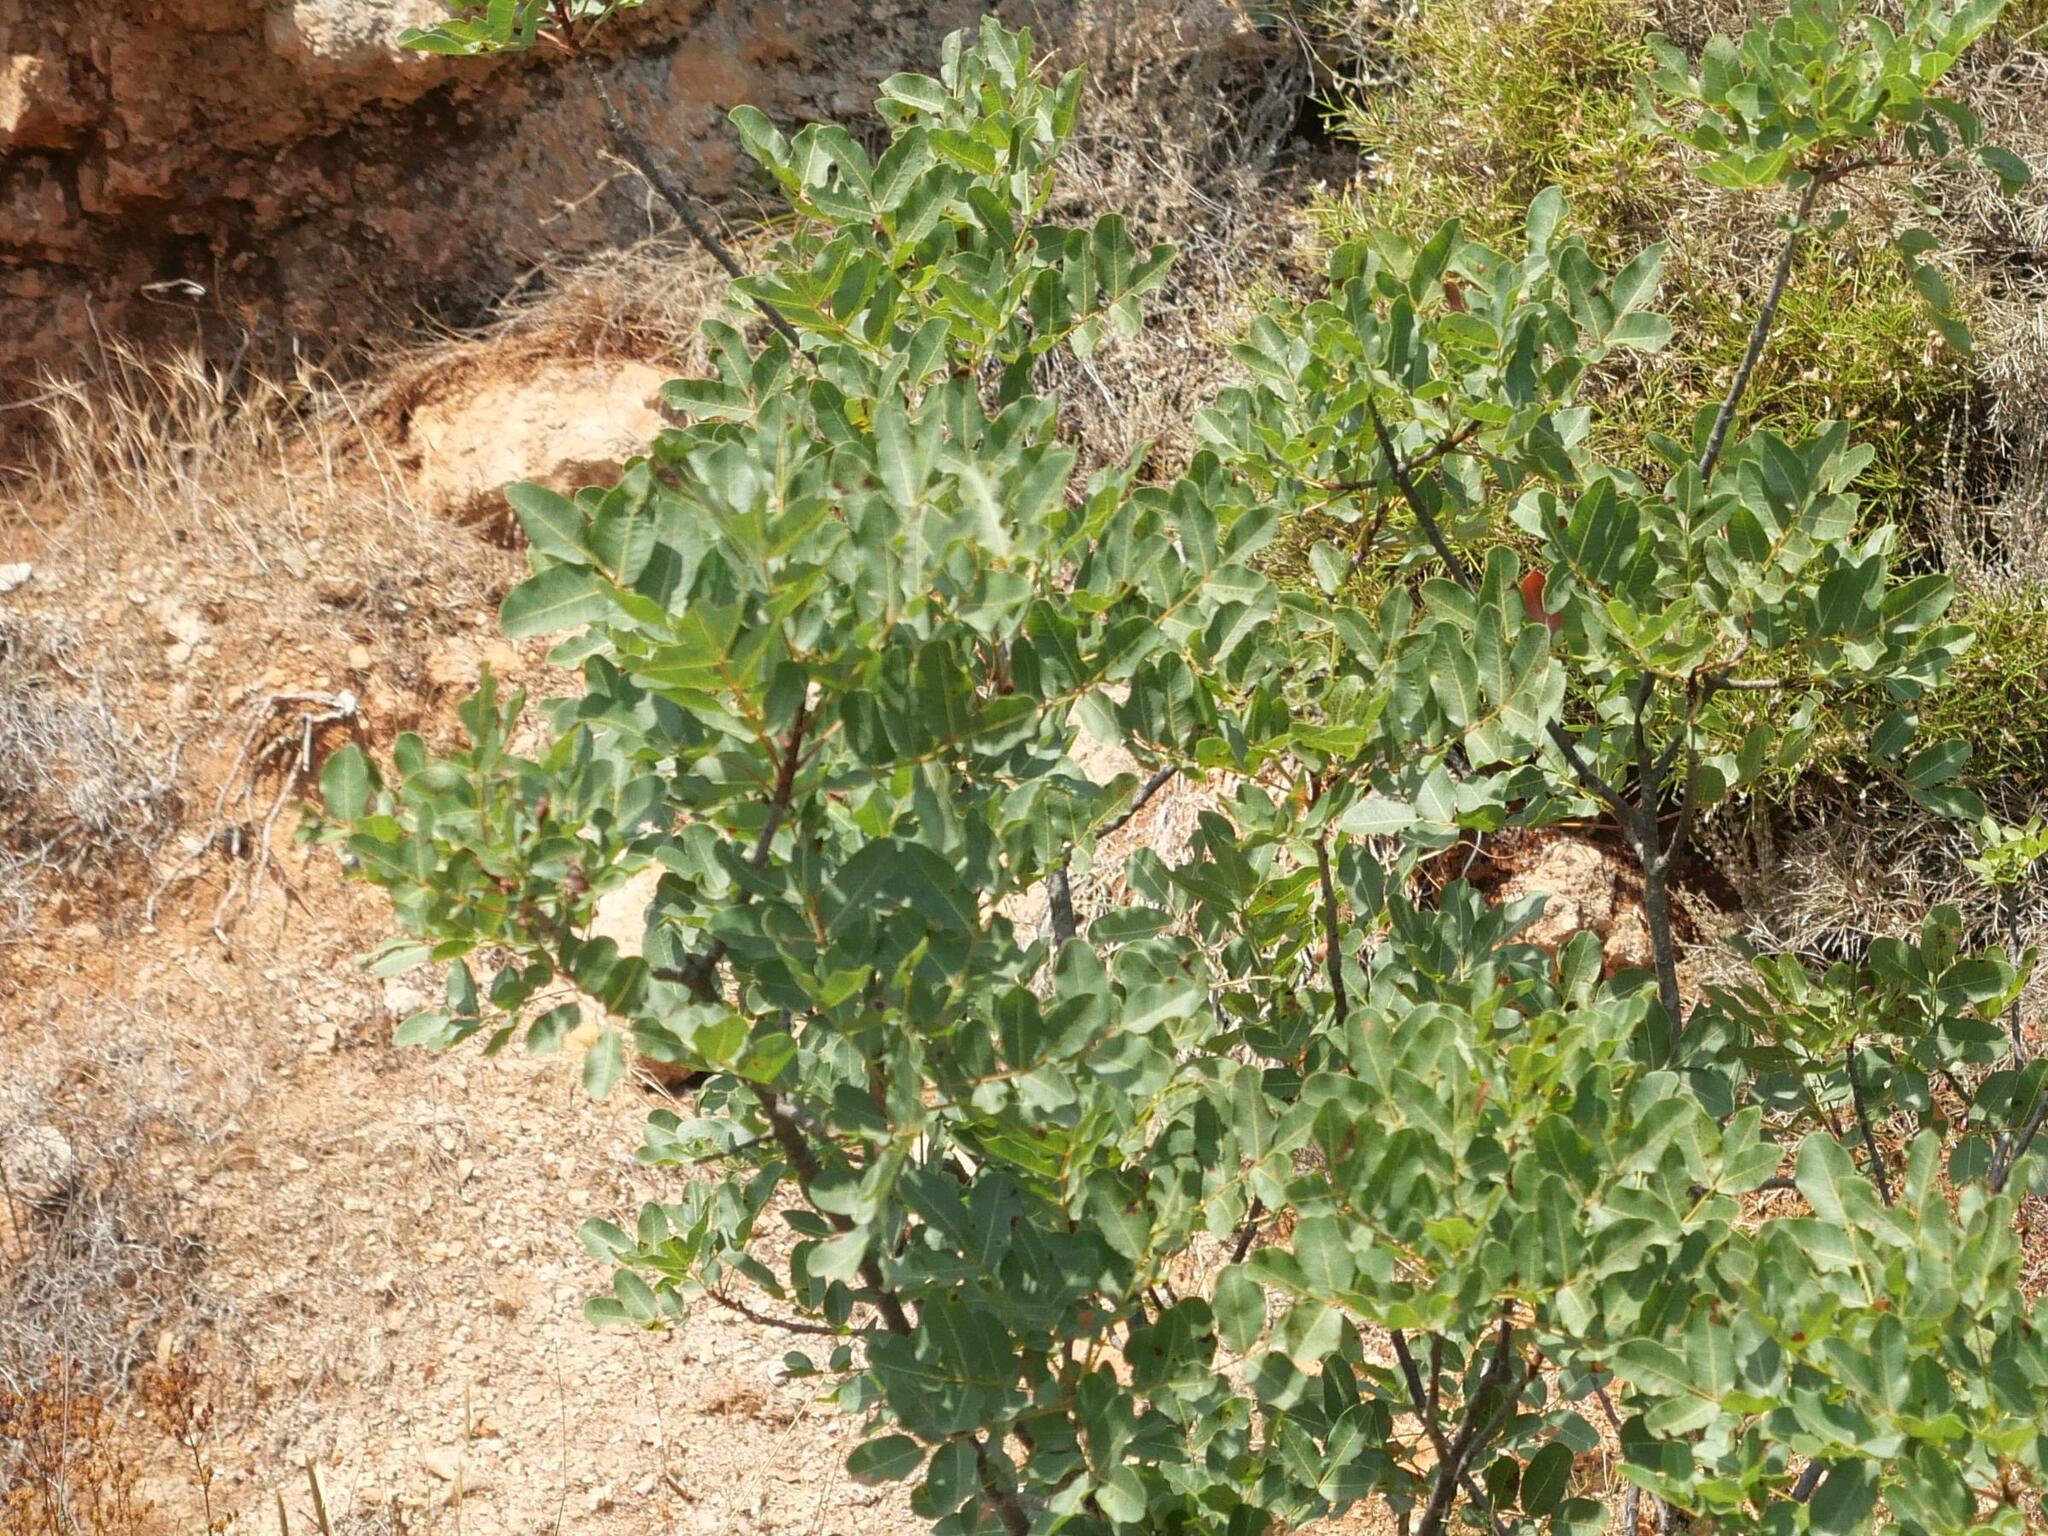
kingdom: Plantae
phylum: Tracheophyta
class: Magnoliopsida
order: Sapindales
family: Anacardiaceae
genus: Pistacia
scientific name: Pistacia terebinthus
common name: Terebinth
